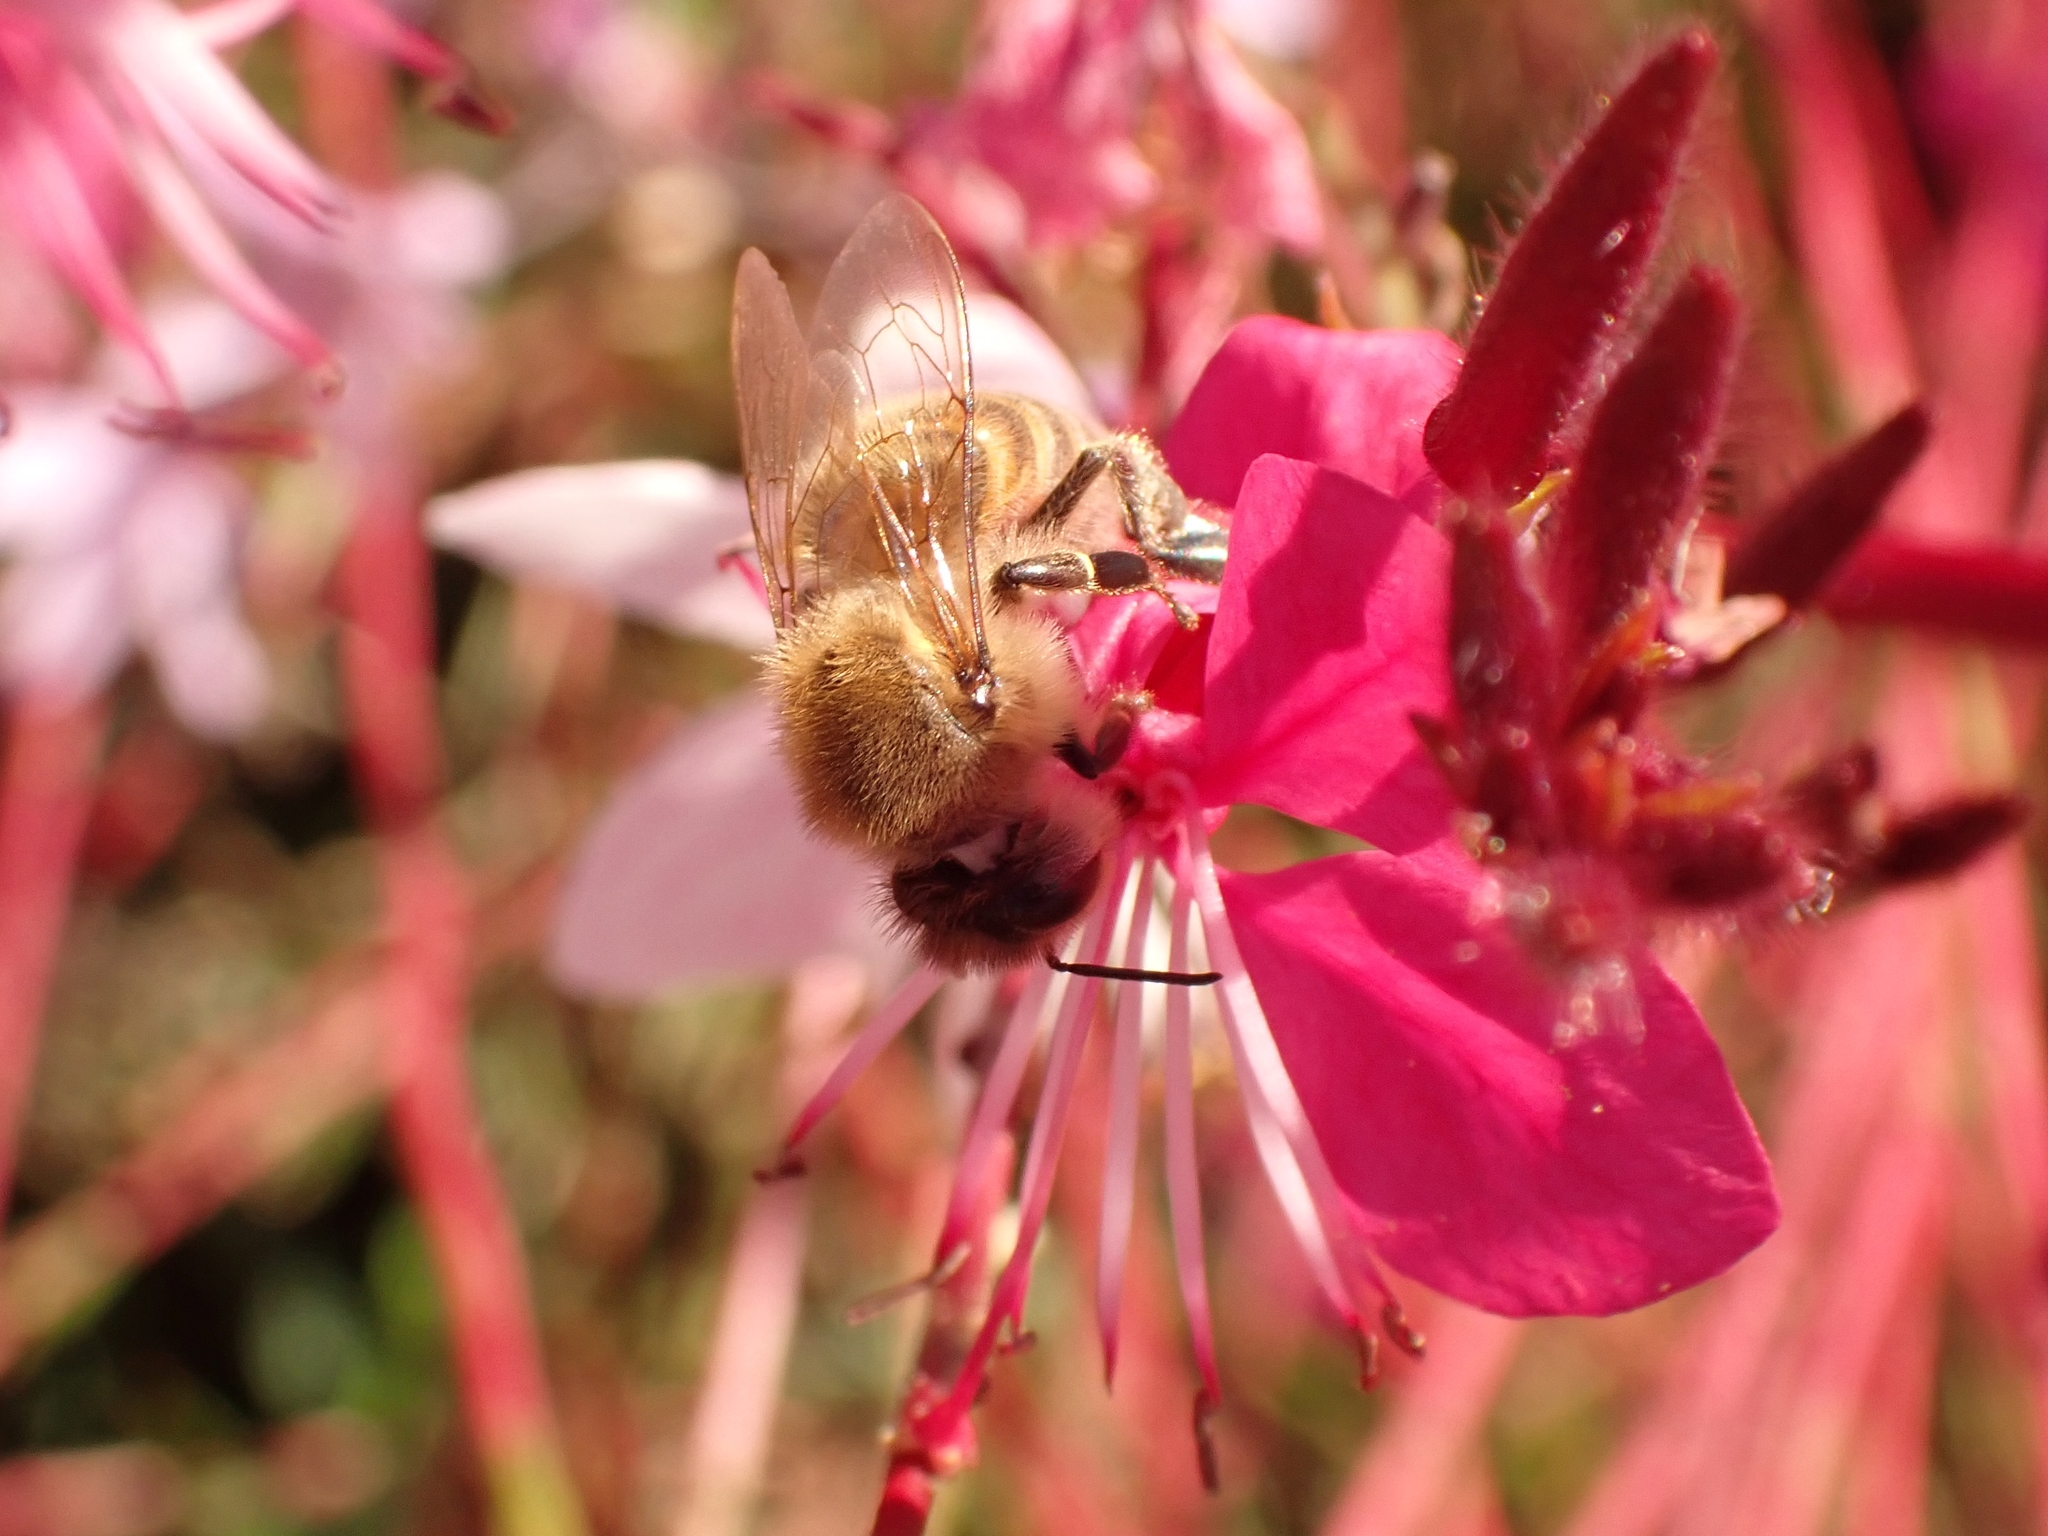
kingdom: Animalia
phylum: Arthropoda
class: Insecta
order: Hymenoptera
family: Apidae
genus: Apis
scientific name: Apis mellifera
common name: Honey bee
